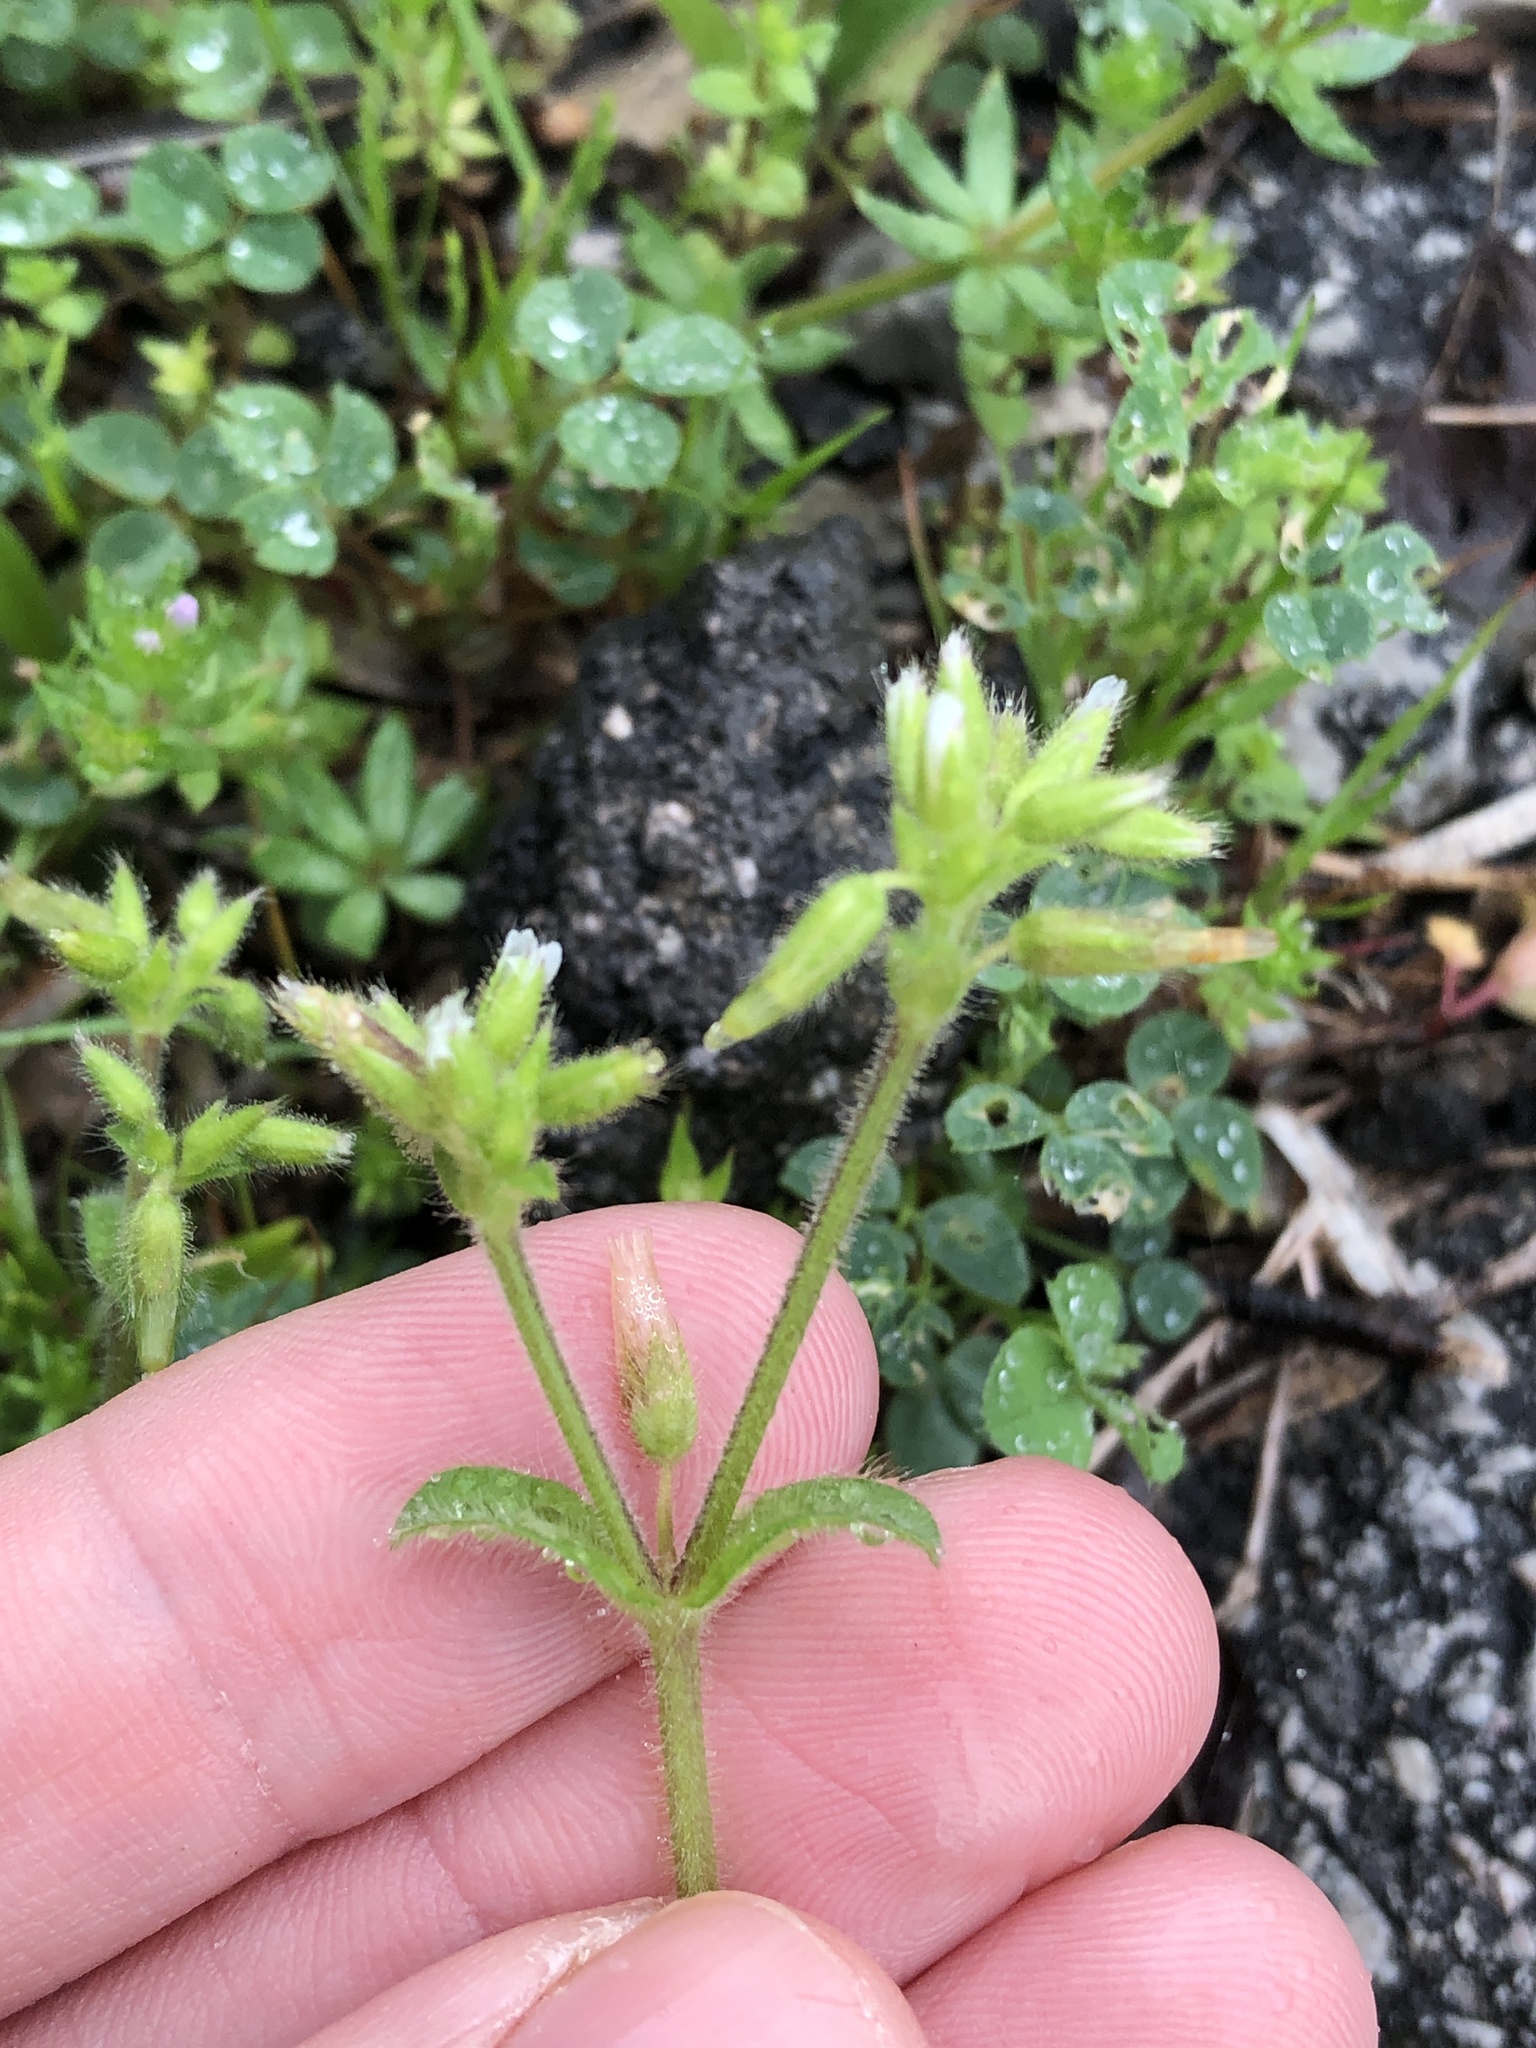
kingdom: Plantae
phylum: Tracheophyta
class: Magnoliopsida
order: Caryophyllales
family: Caryophyllaceae
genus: Cerastium
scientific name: Cerastium glomeratum
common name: Sticky chickweed
